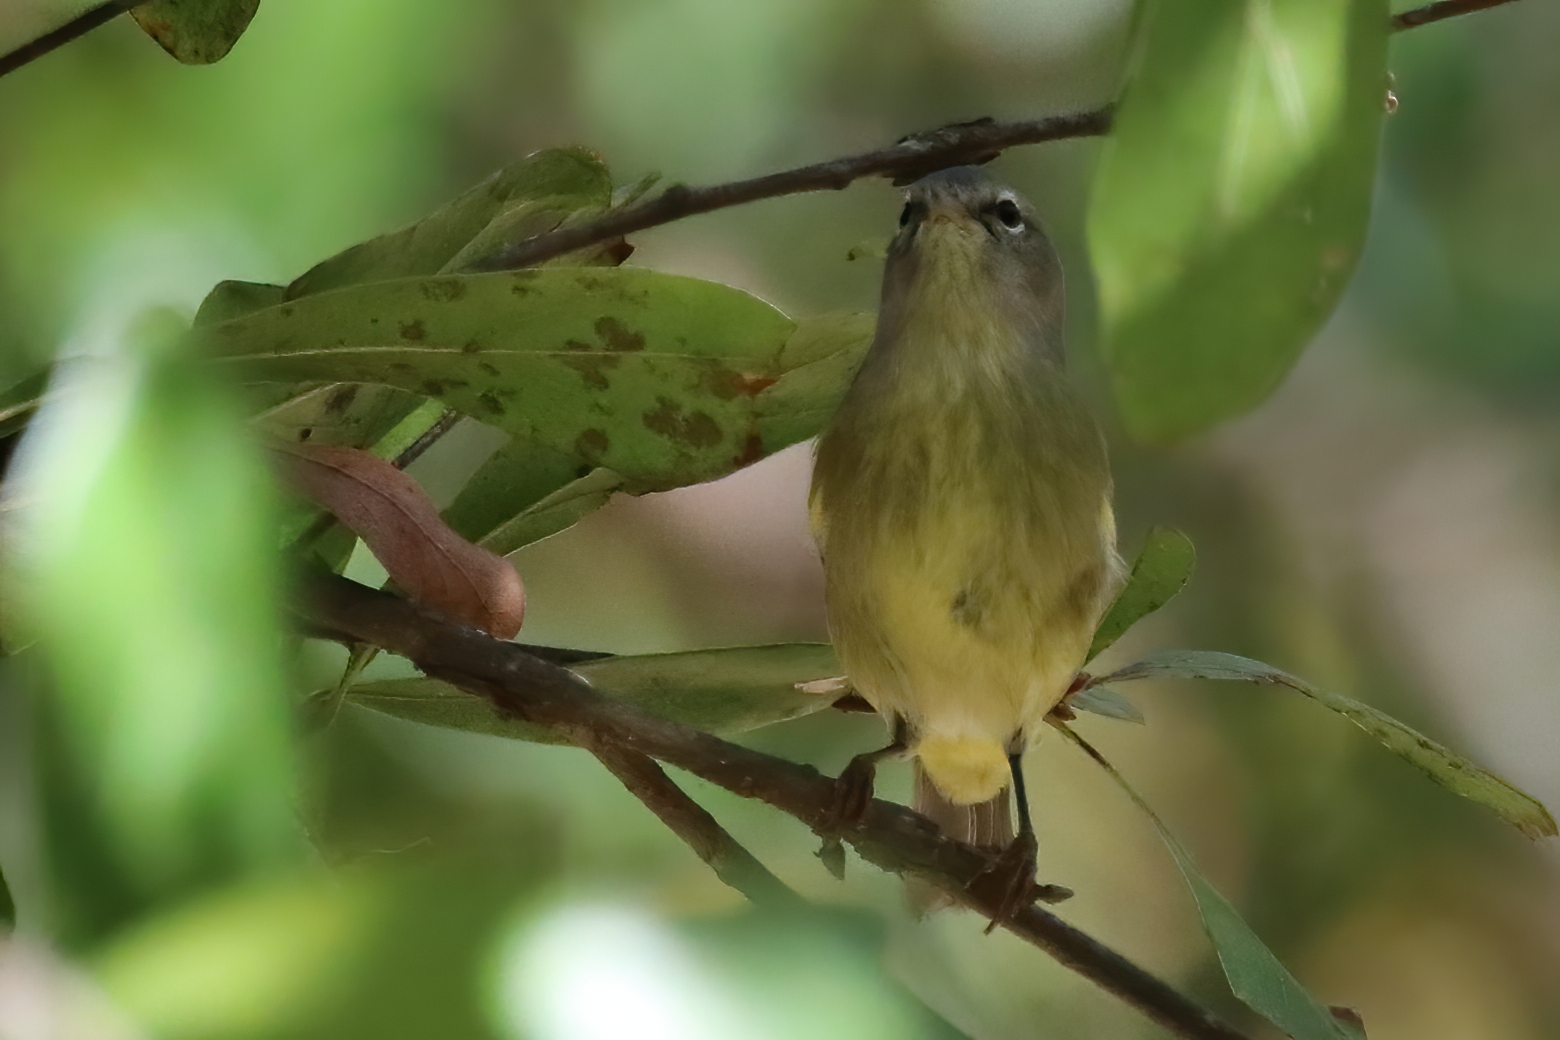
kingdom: Animalia
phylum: Chordata
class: Aves
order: Passeriformes
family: Parulidae
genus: Leiothlypis
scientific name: Leiothlypis celata
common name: Orange-crowned warbler
